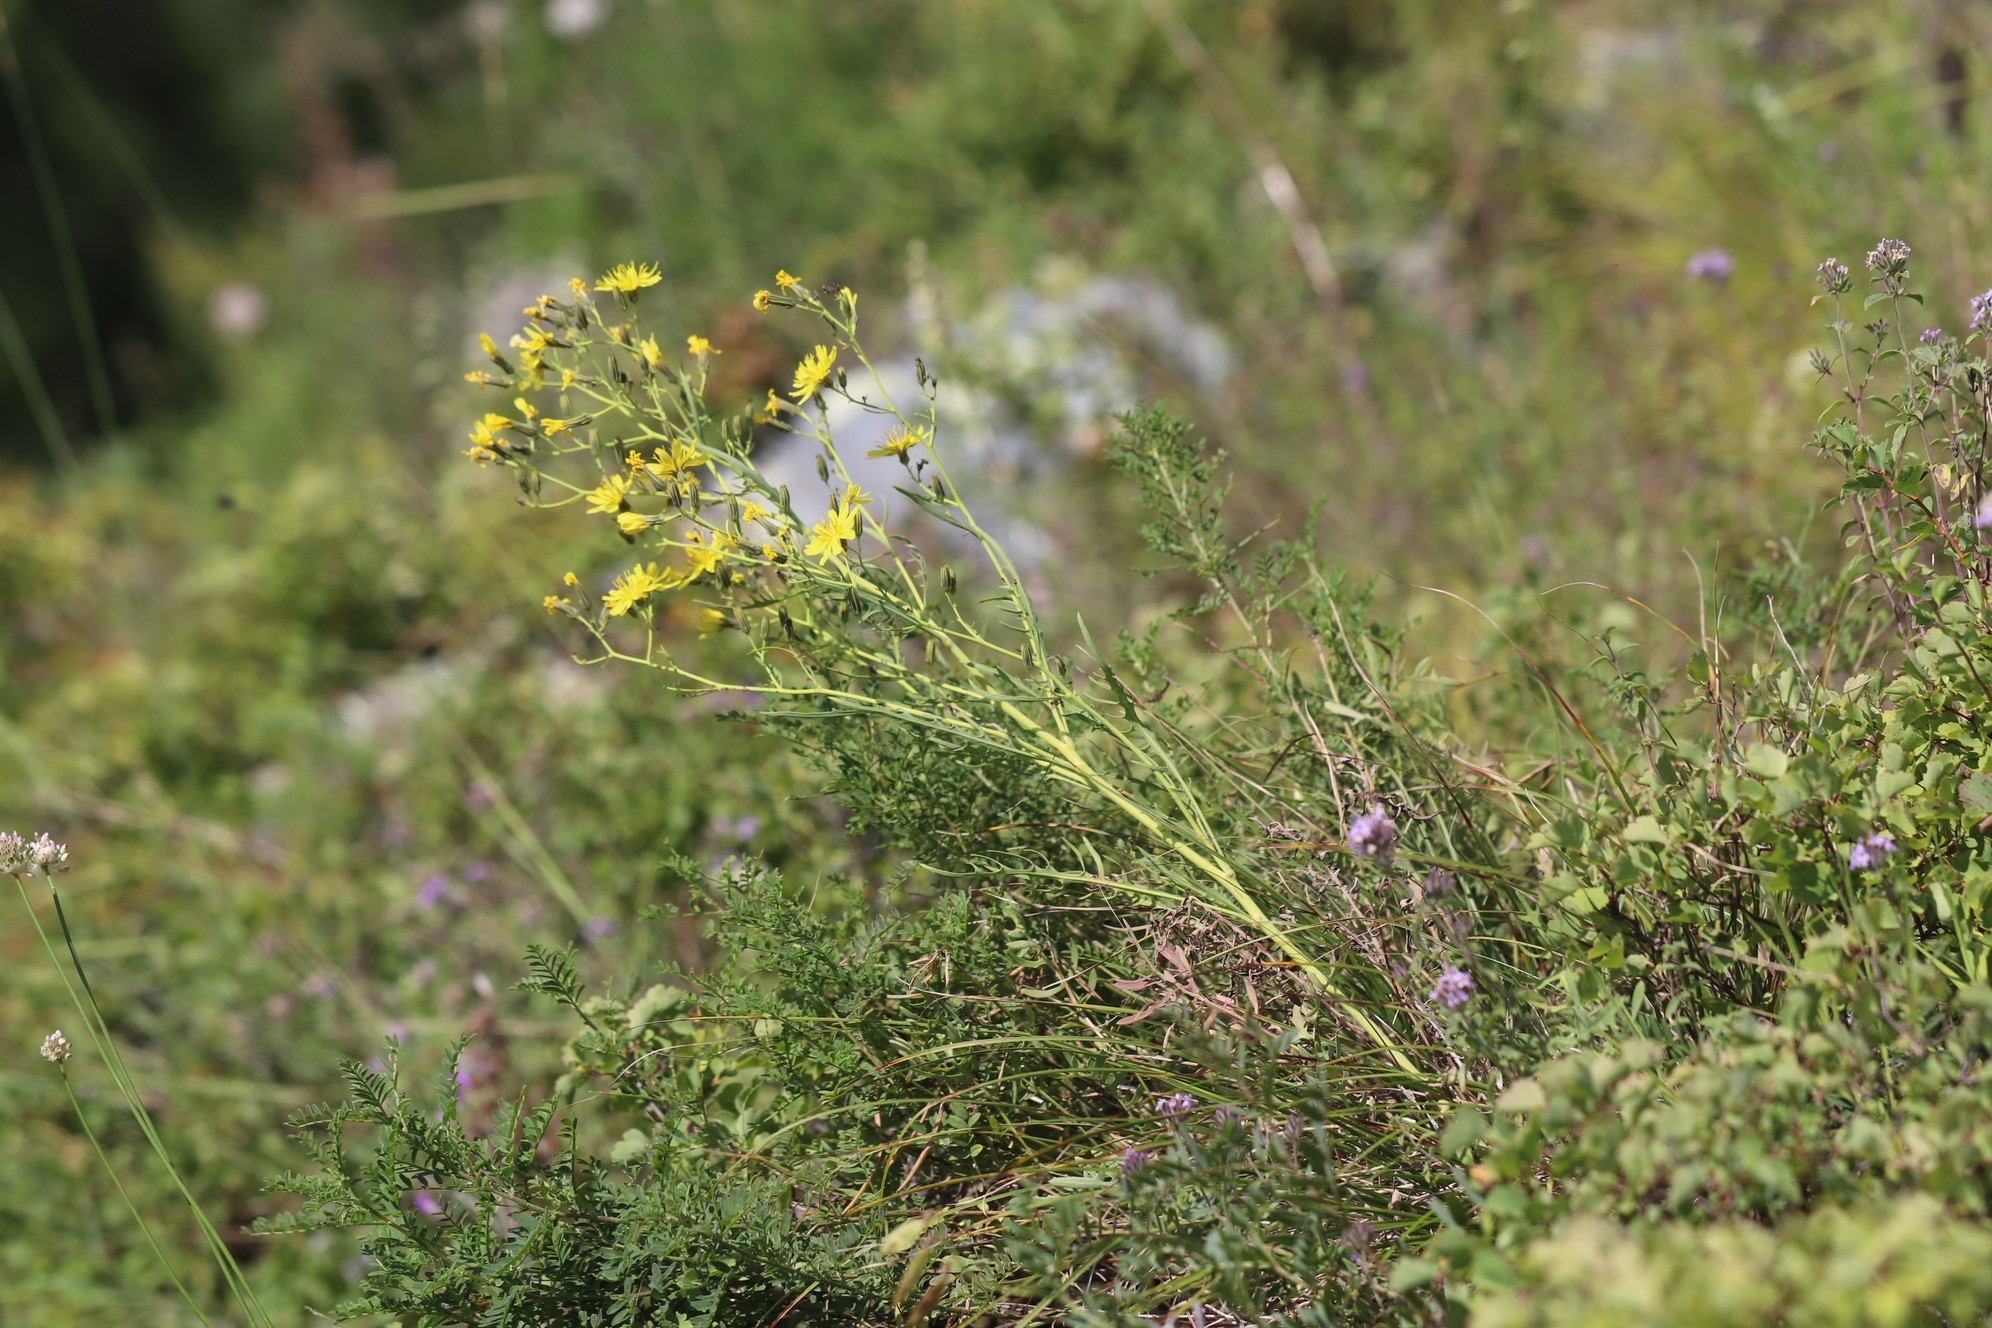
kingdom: Plantae
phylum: Tracheophyta
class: Magnoliopsida
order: Asterales
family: Asteraceae
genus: Crepidiastrum
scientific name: Crepidiastrum tenuifolium
